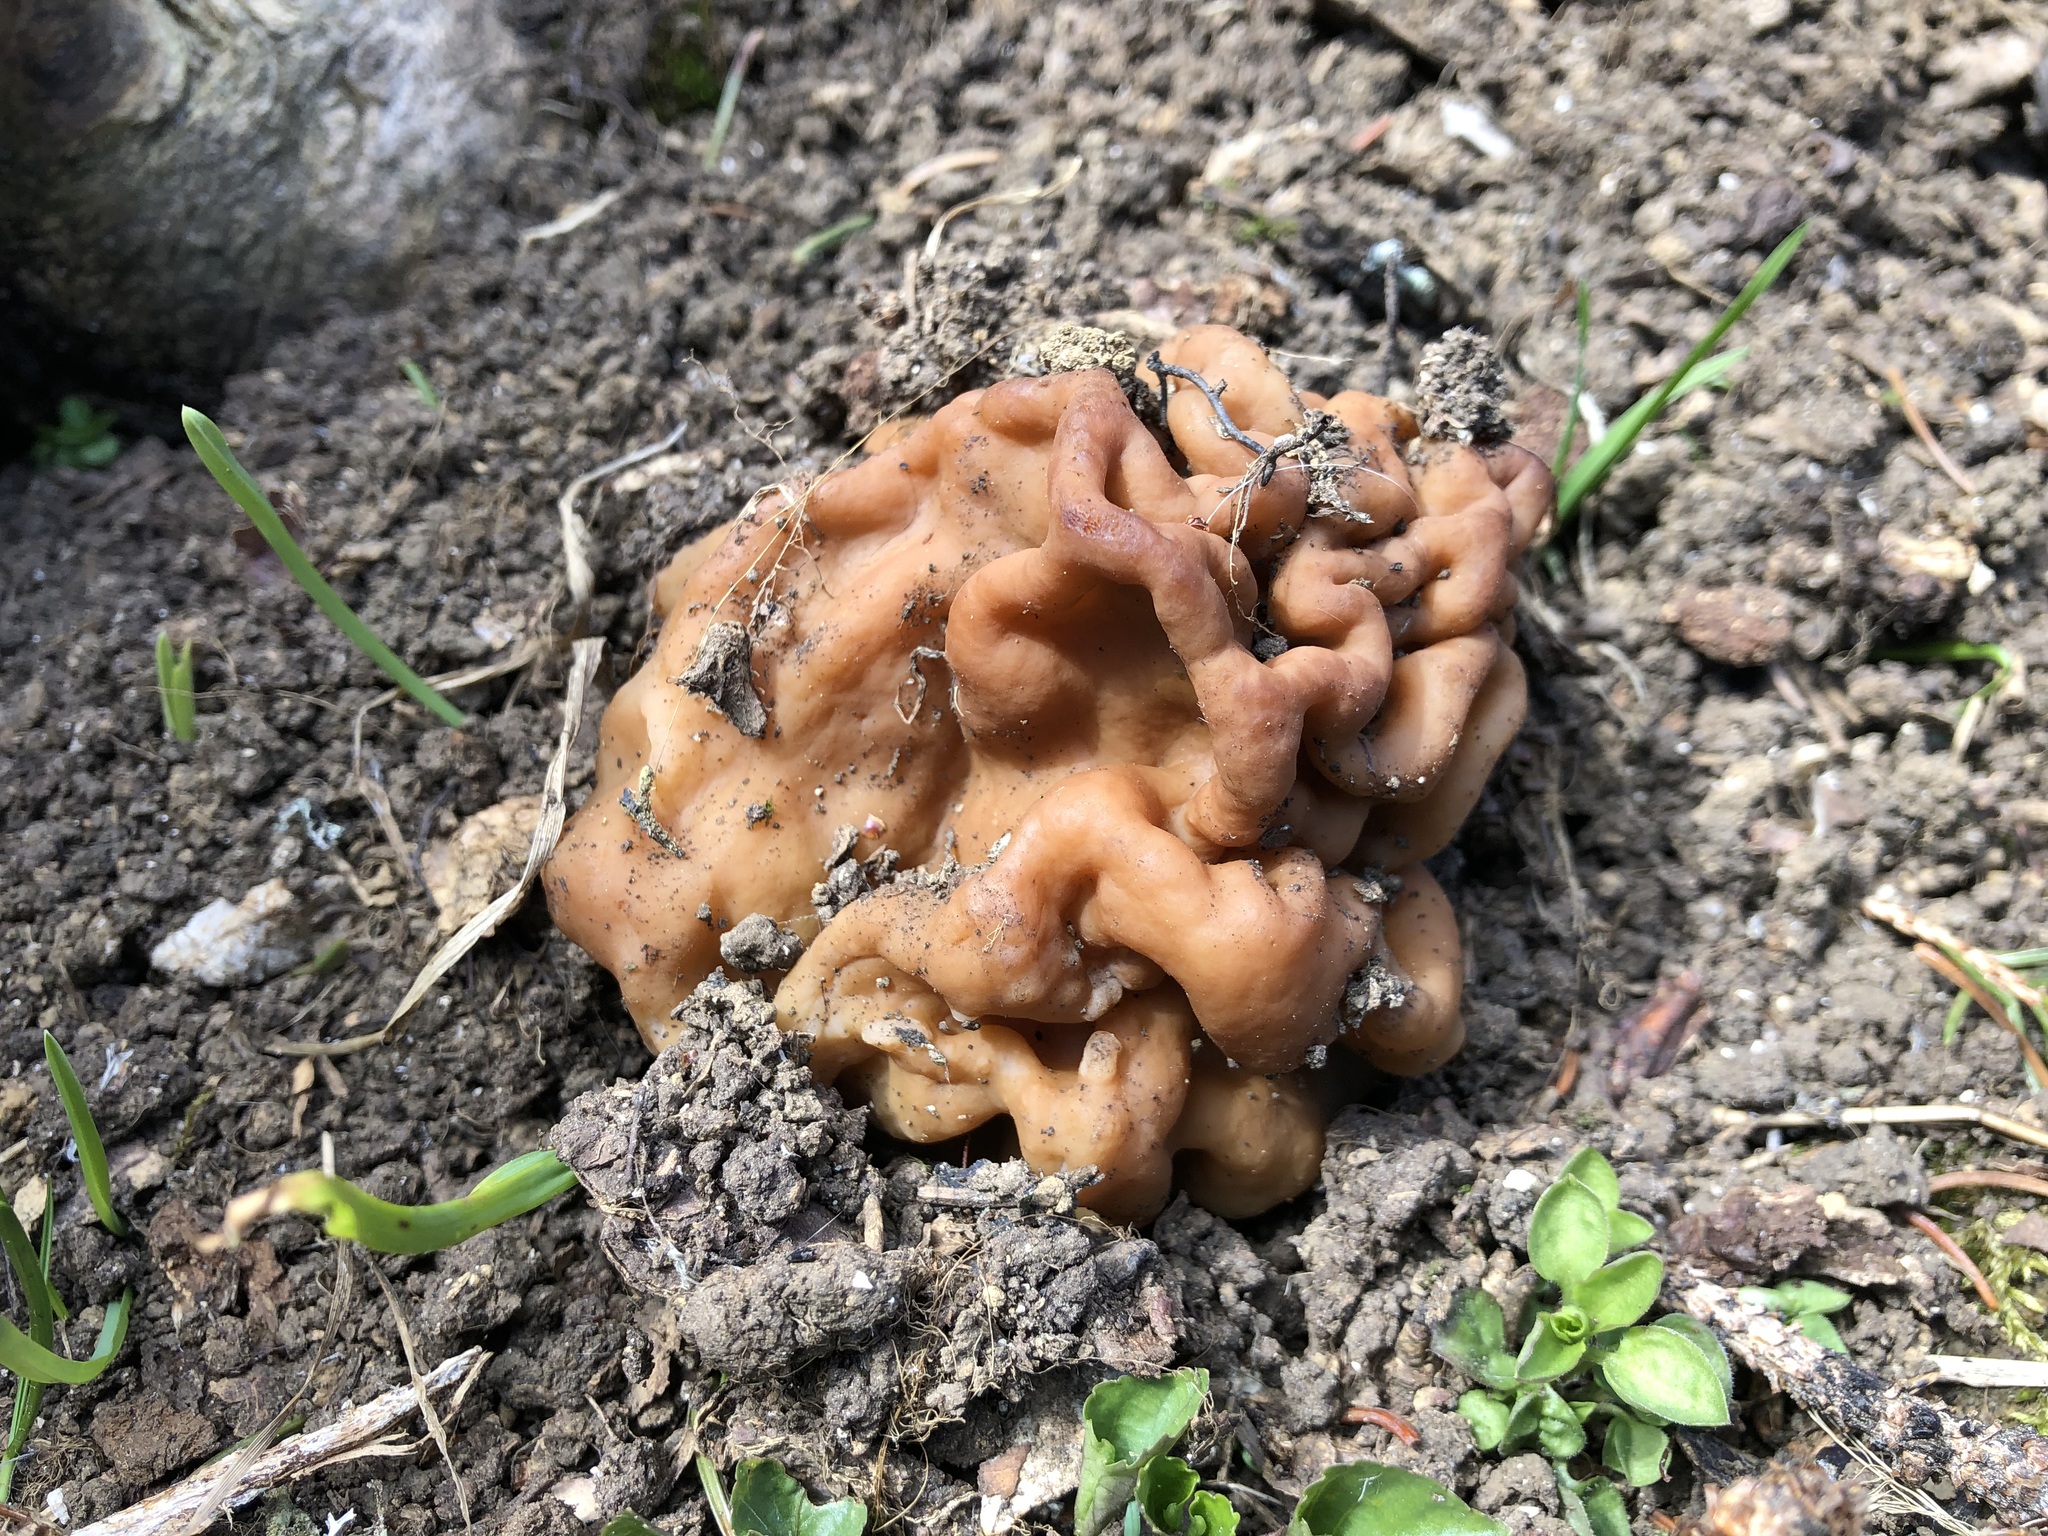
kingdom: Fungi
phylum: Ascomycota
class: Pezizomycetes
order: Pezizales
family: Discinaceae
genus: Gyromitra
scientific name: Gyromitra gigas
